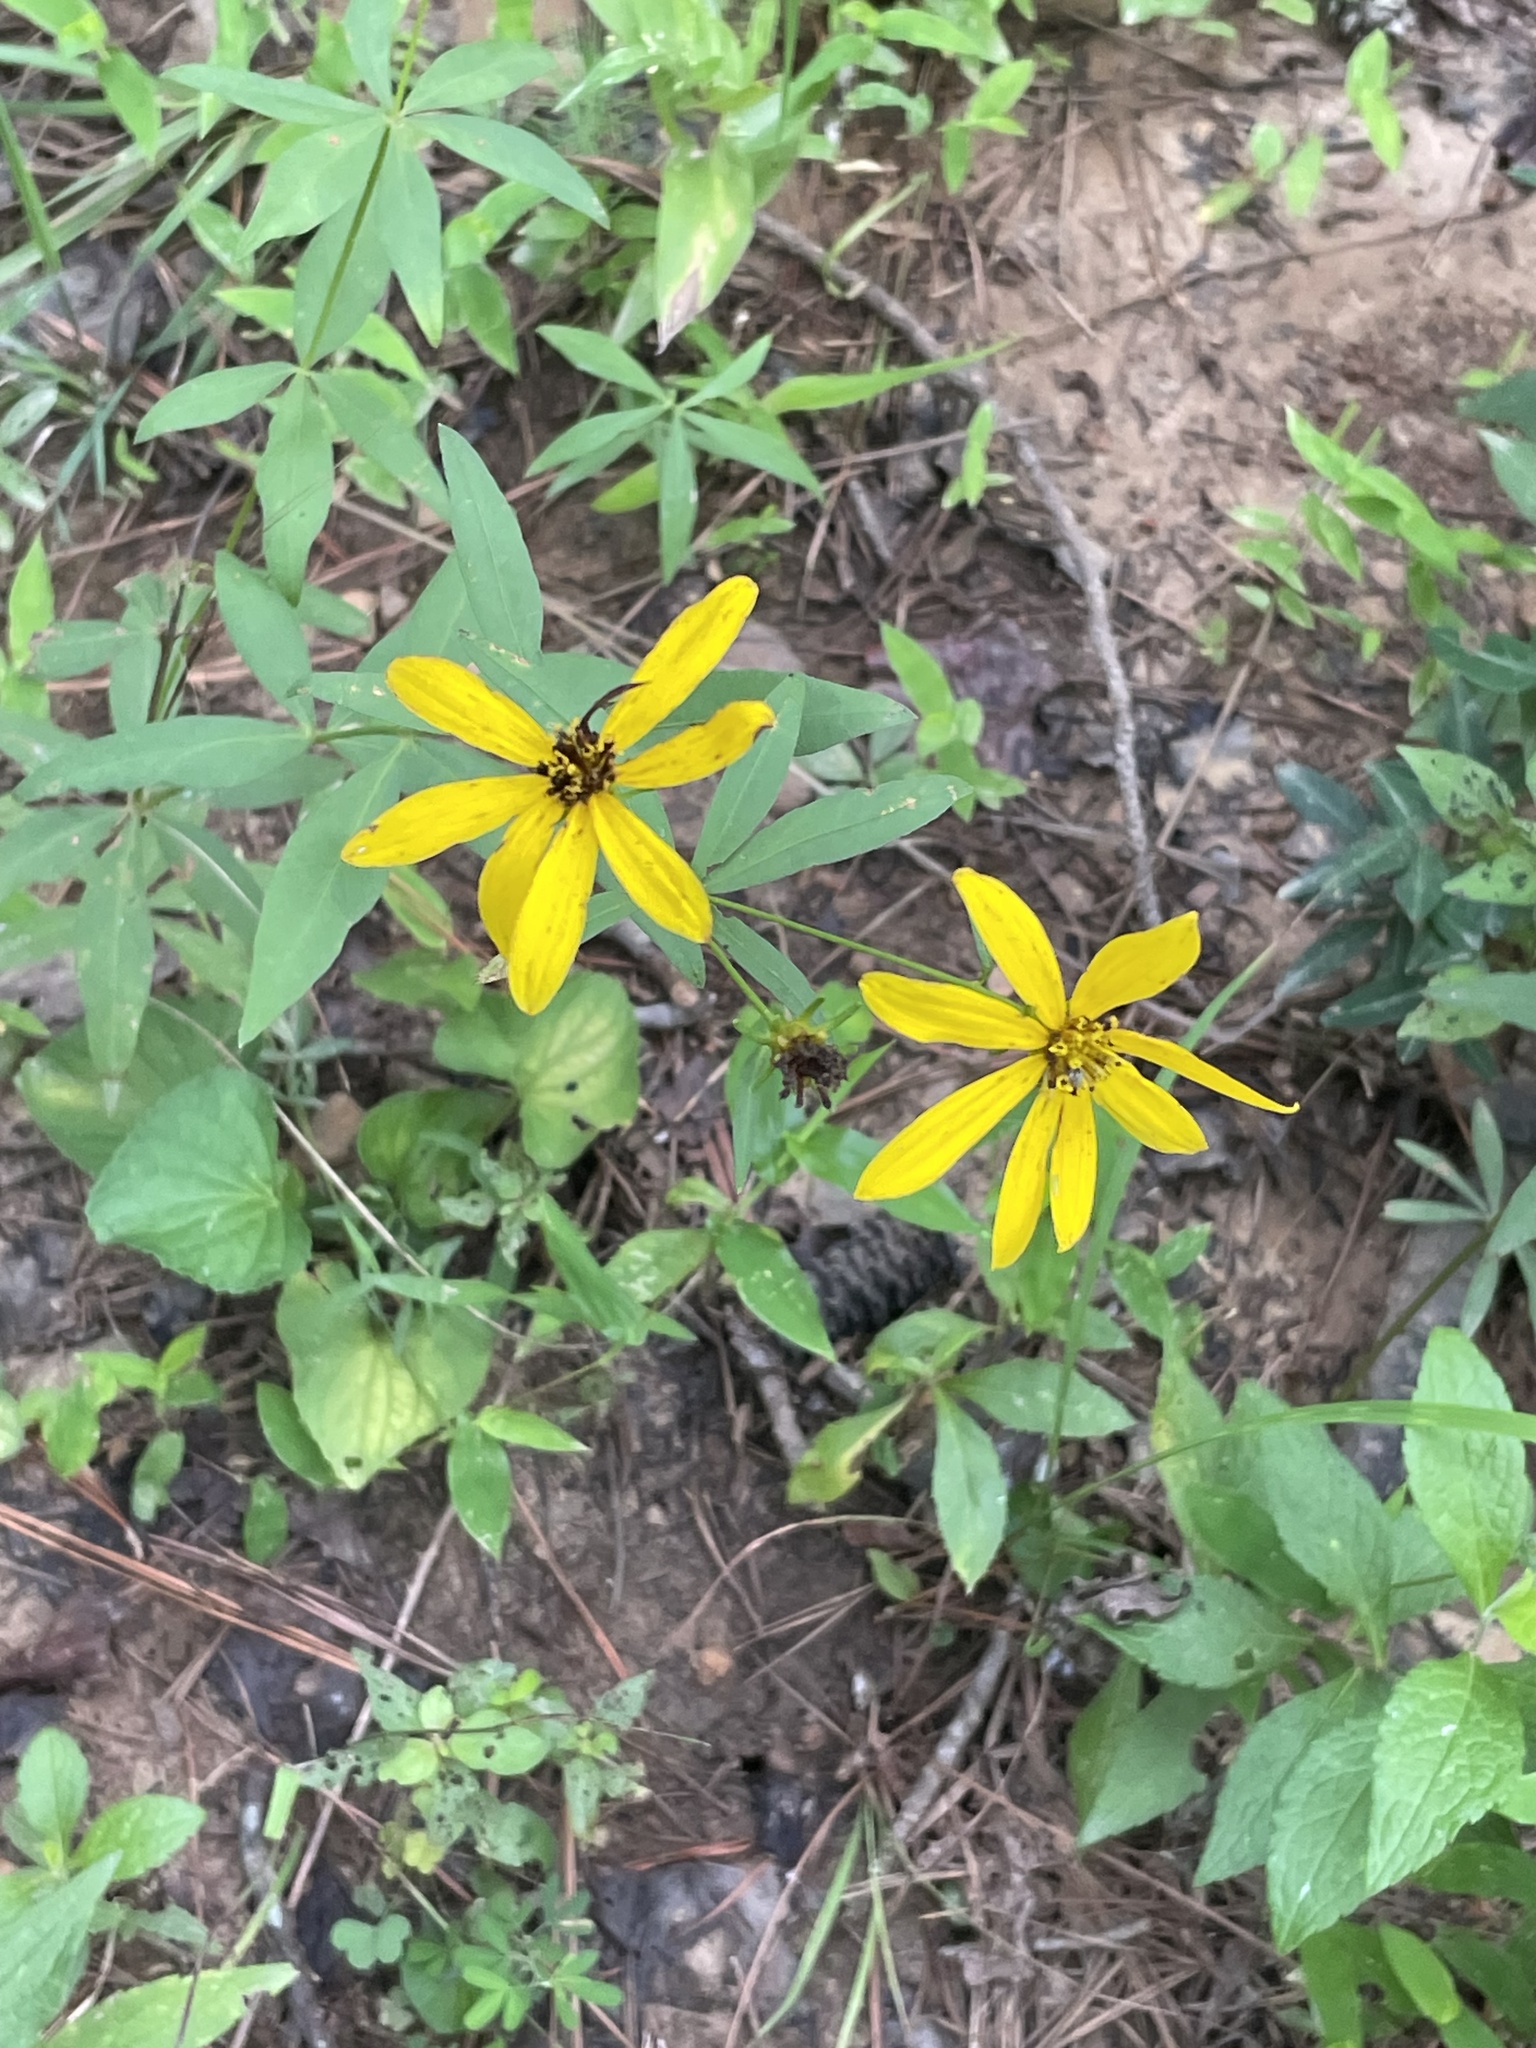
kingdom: Plantae
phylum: Tracheophyta
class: Magnoliopsida
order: Asterales
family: Asteraceae
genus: Coreopsis
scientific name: Coreopsis major
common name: Forest tickseed
